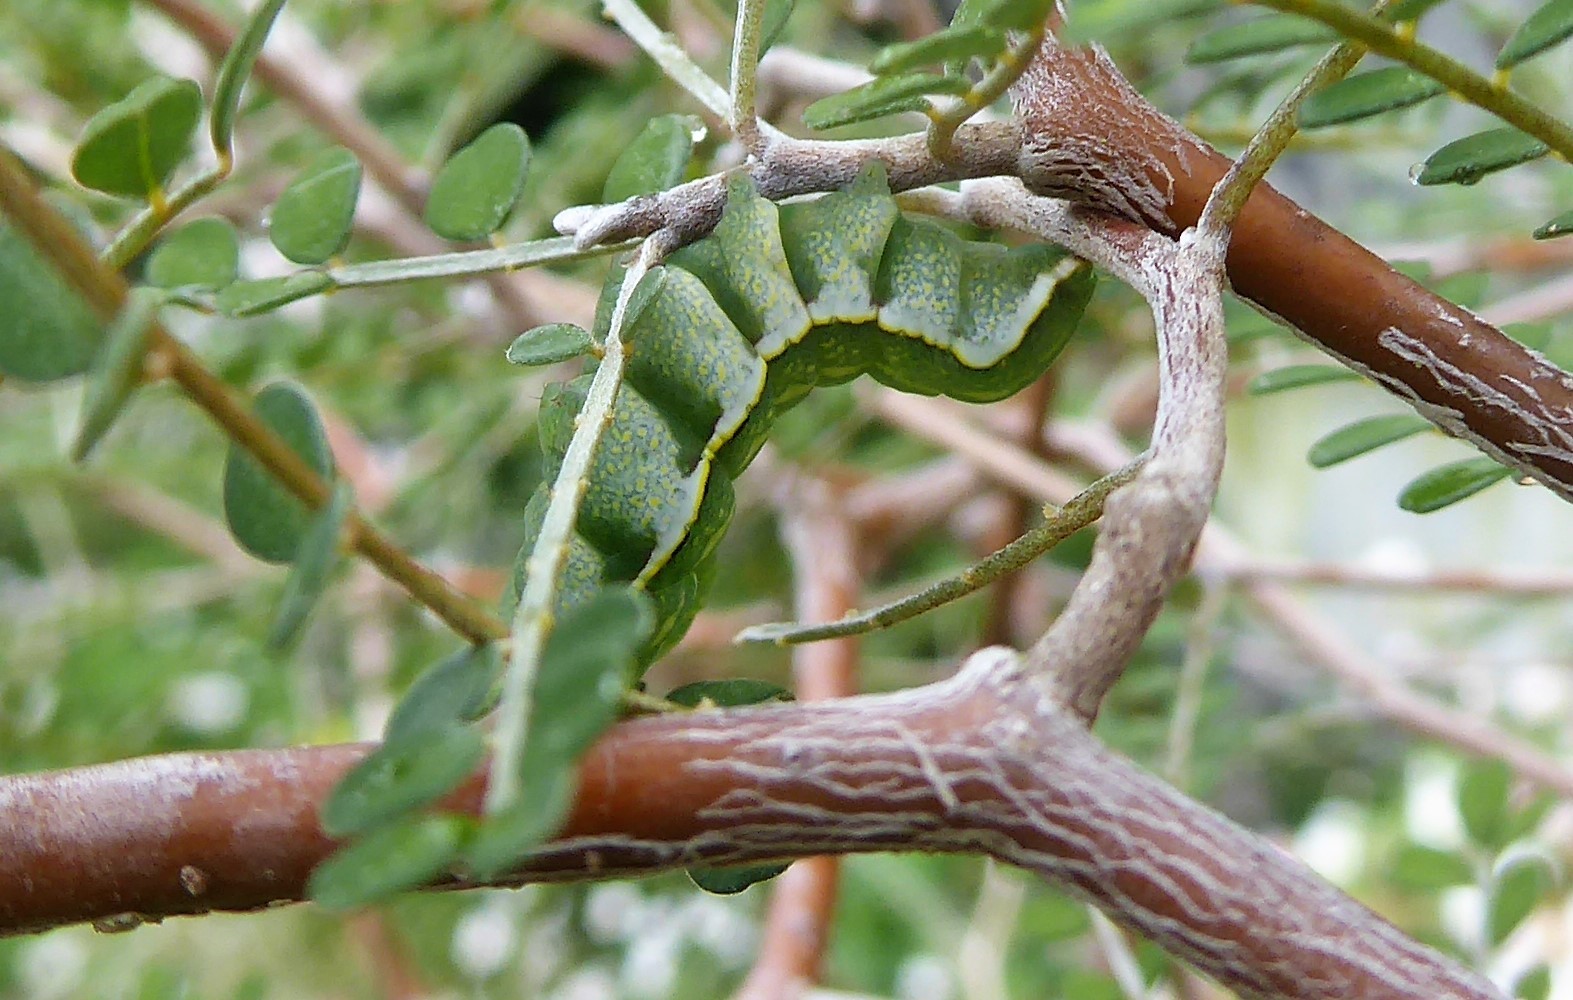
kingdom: Animalia
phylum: Arthropoda
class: Insecta
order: Lepidoptera
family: Noctuidae
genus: Meterana
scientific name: Meterana decorata
